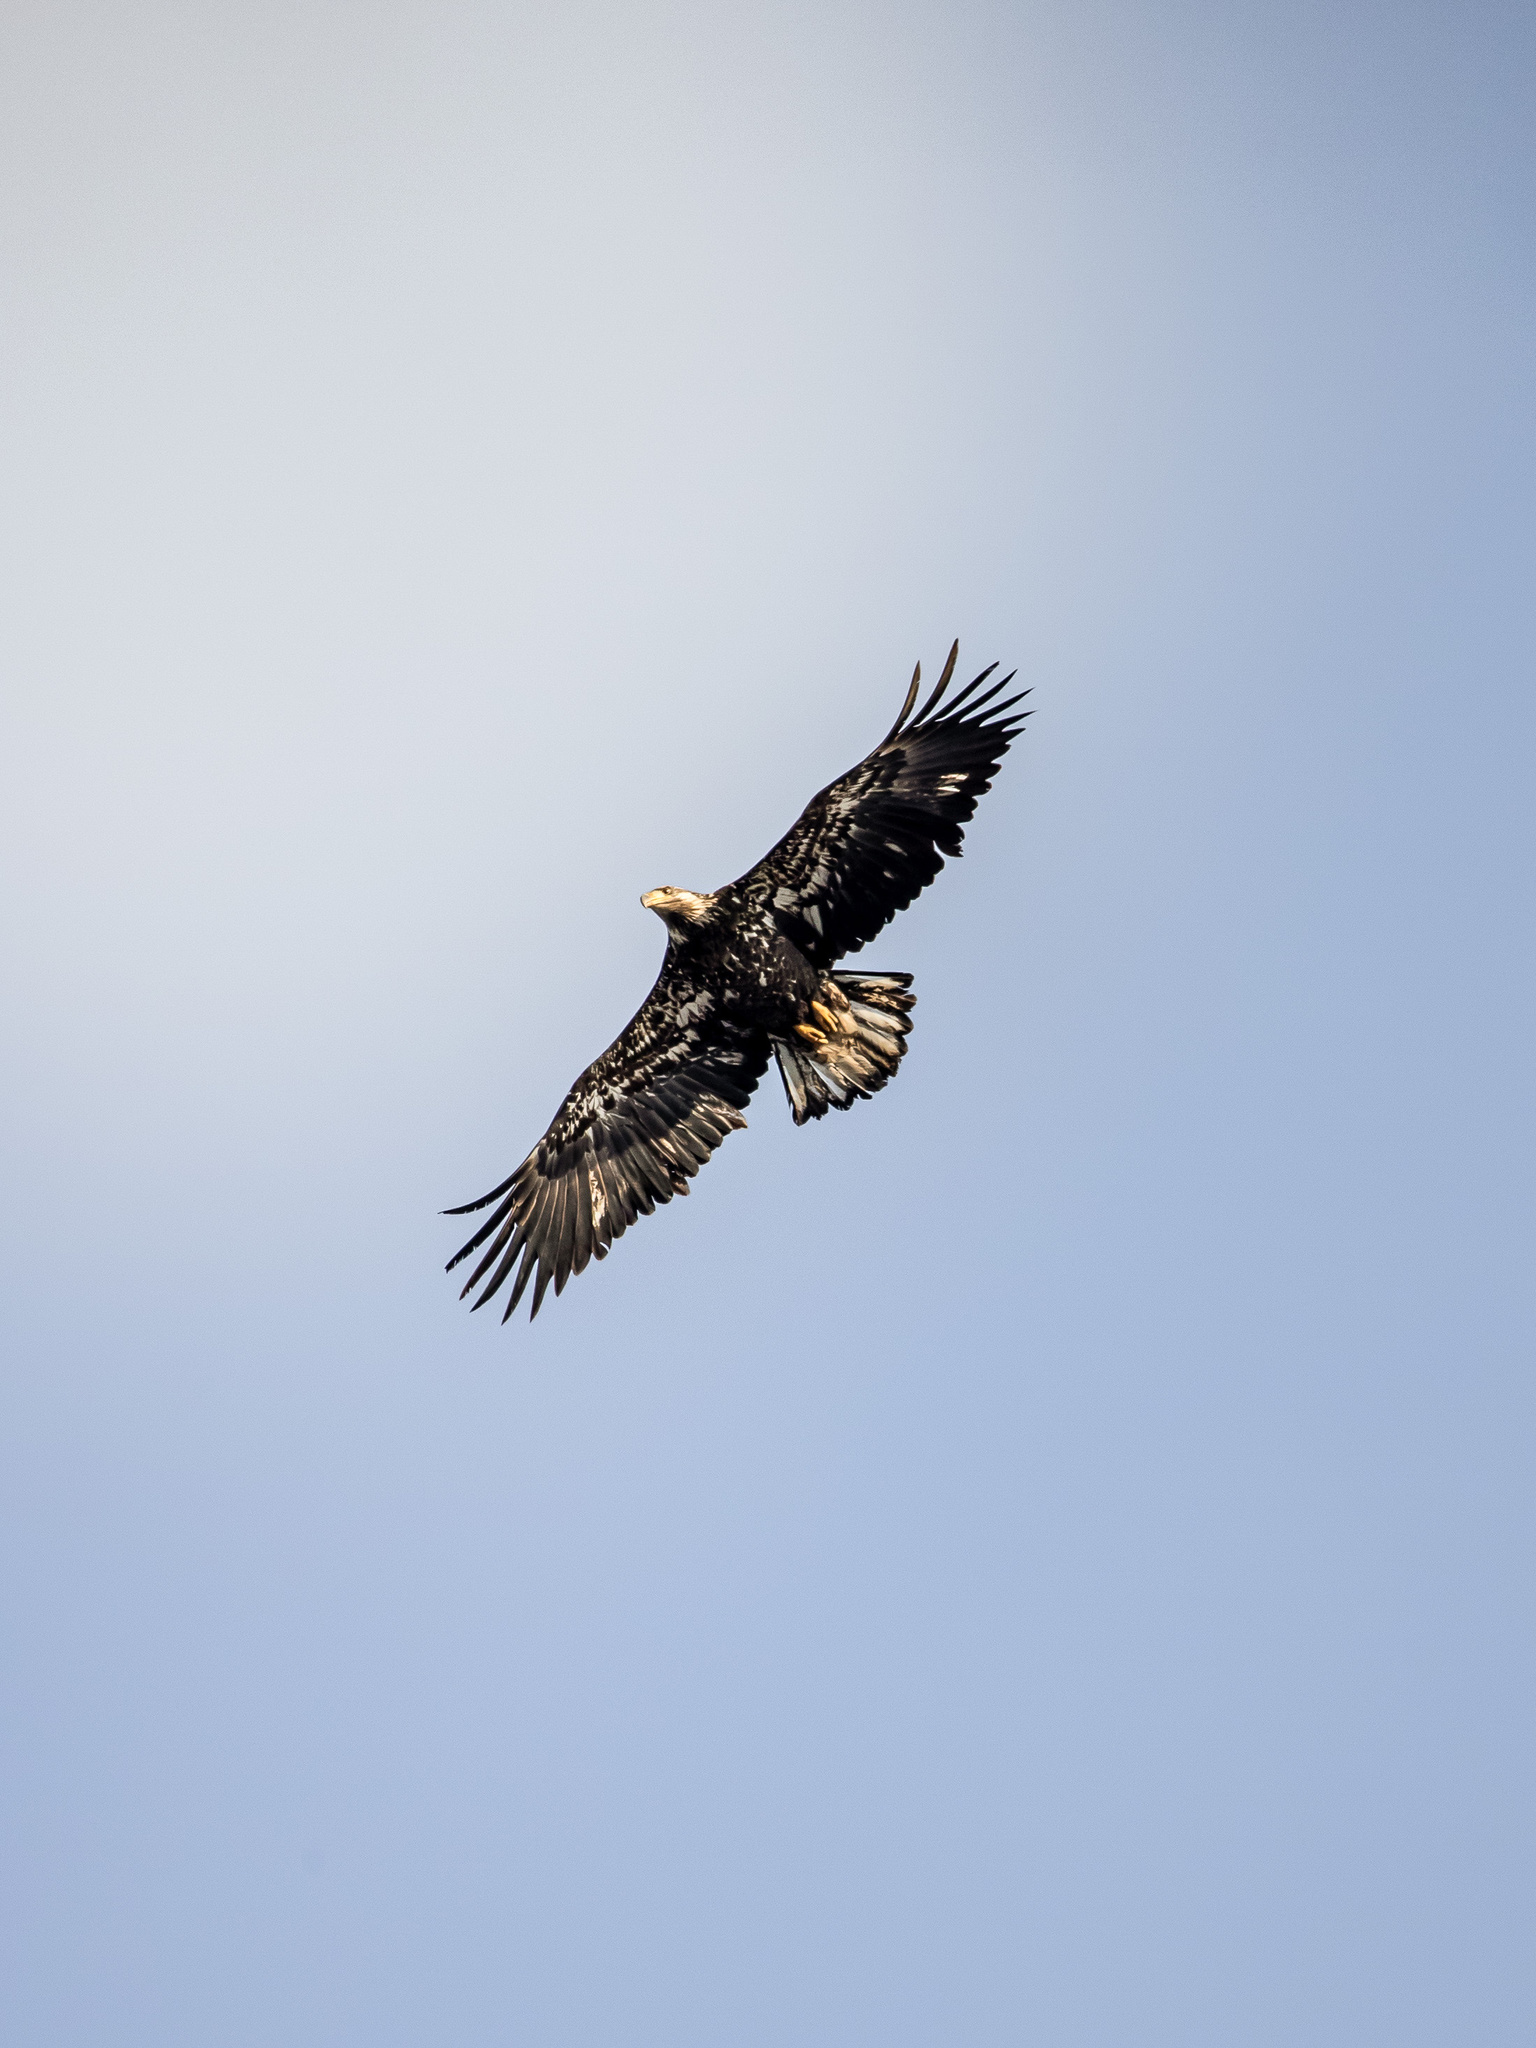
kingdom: Animalia
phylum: Chordata
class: Aves
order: Accipitriformes
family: Accipitridae
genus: Haliaeetus
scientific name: Haliaeetus leucocephalus
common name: Bald eagle
